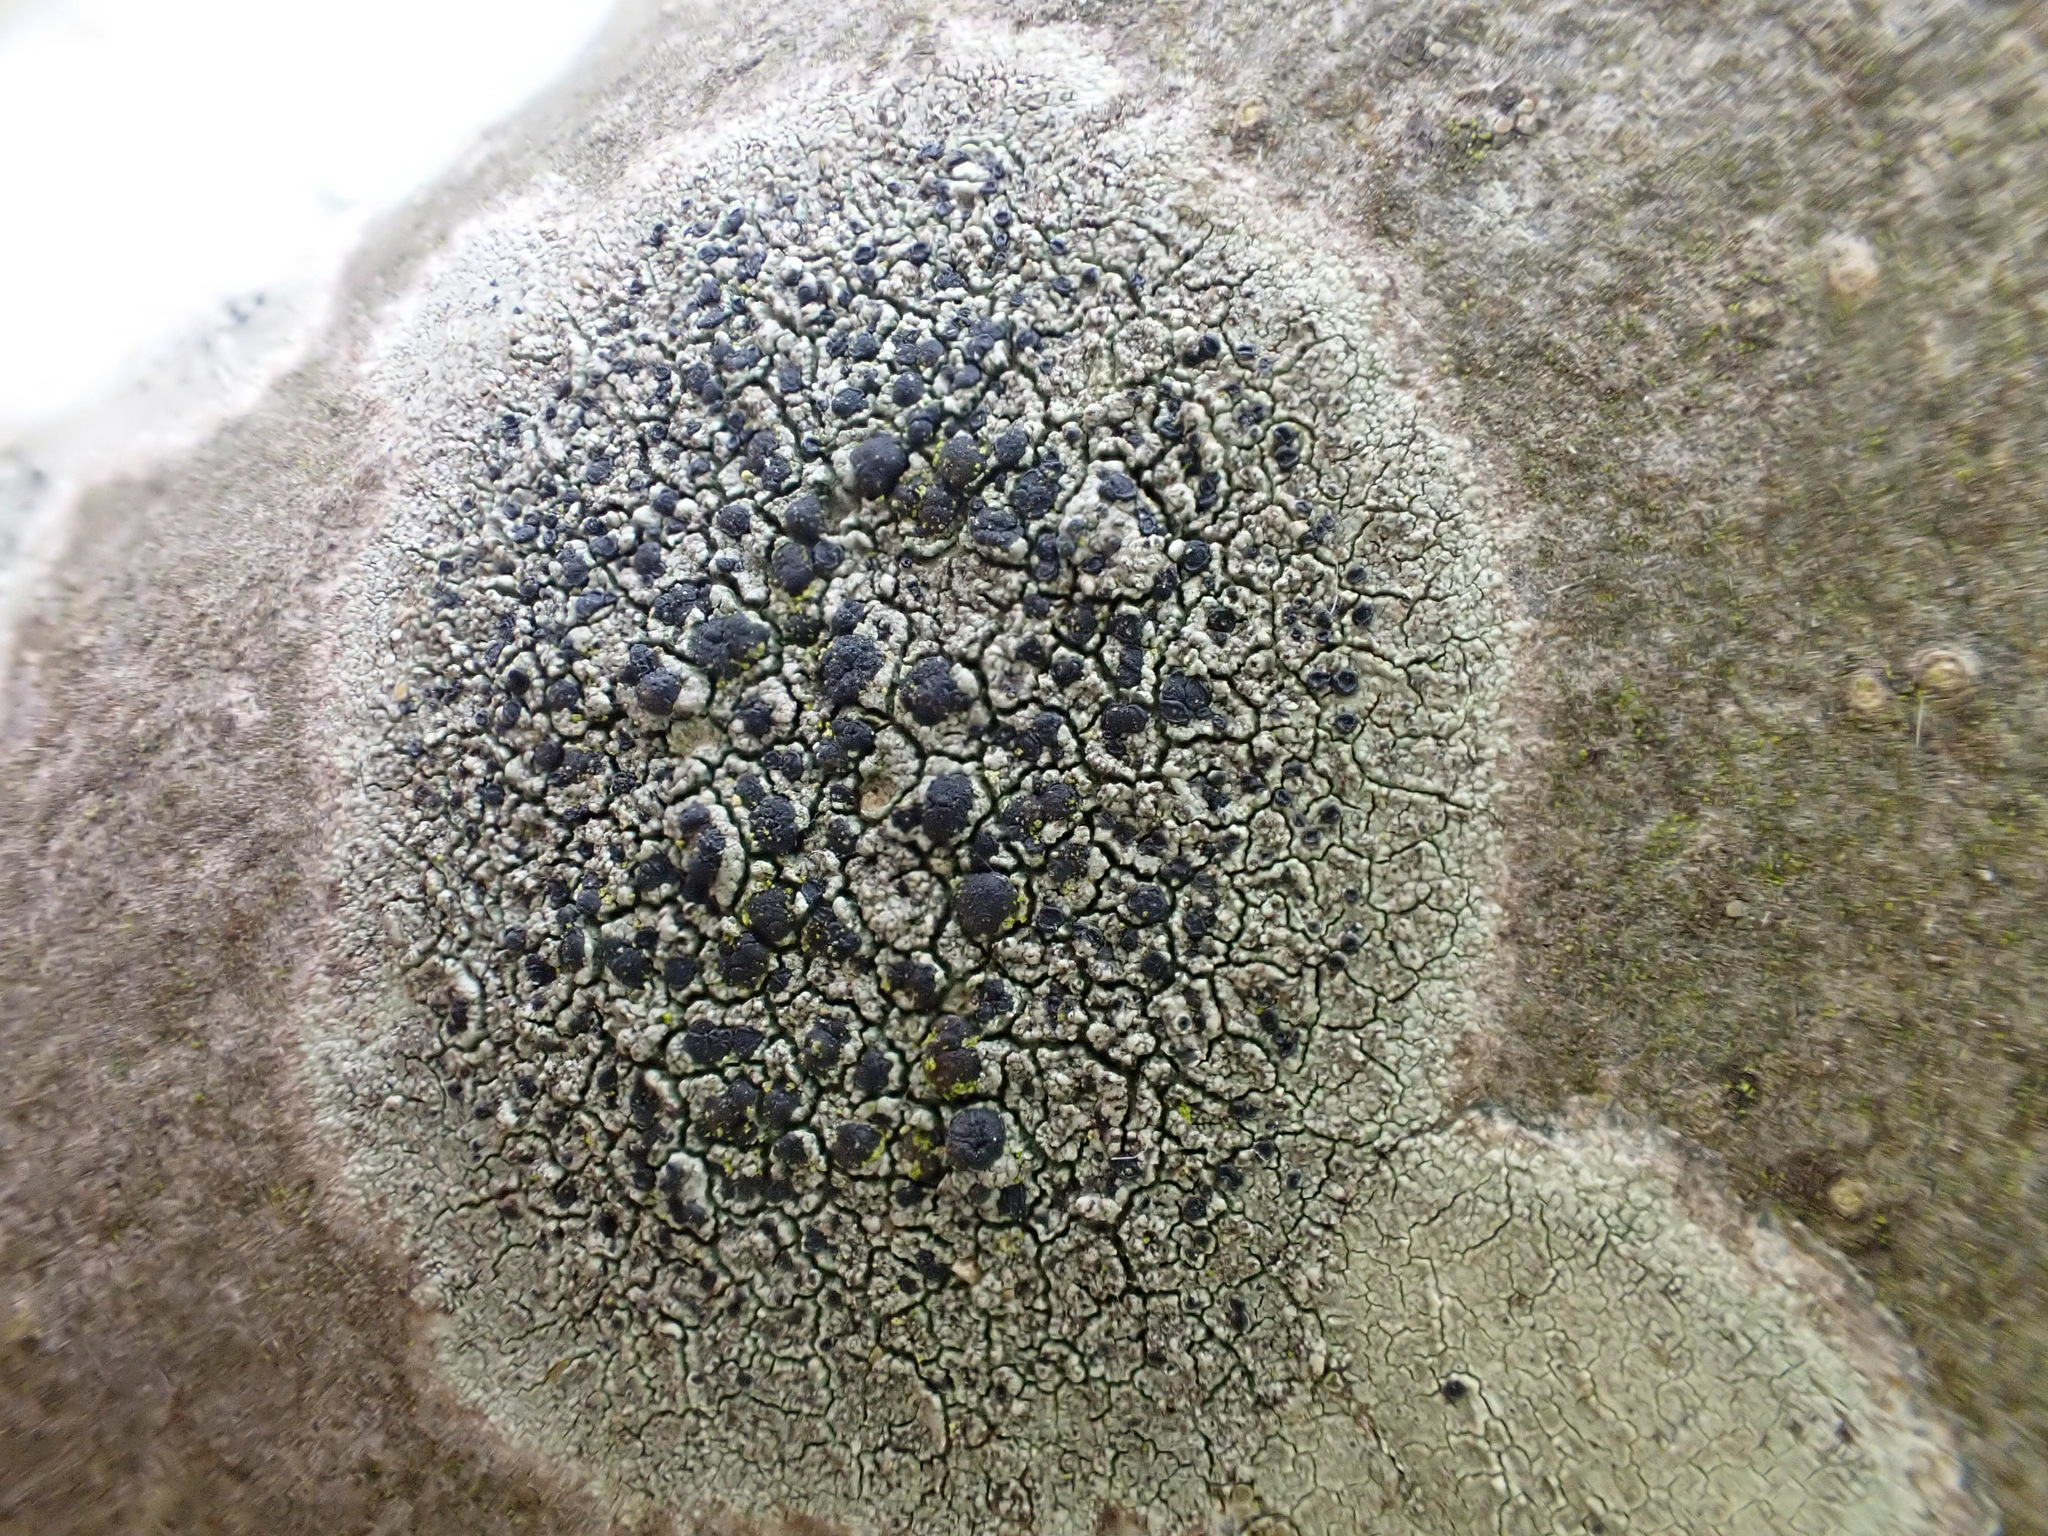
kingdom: Fungi
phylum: Ascomycota
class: Lecanoromycetes
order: Lecanorales
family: Lecanoraceae
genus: Lecidella
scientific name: Lecidella elaeochroma
